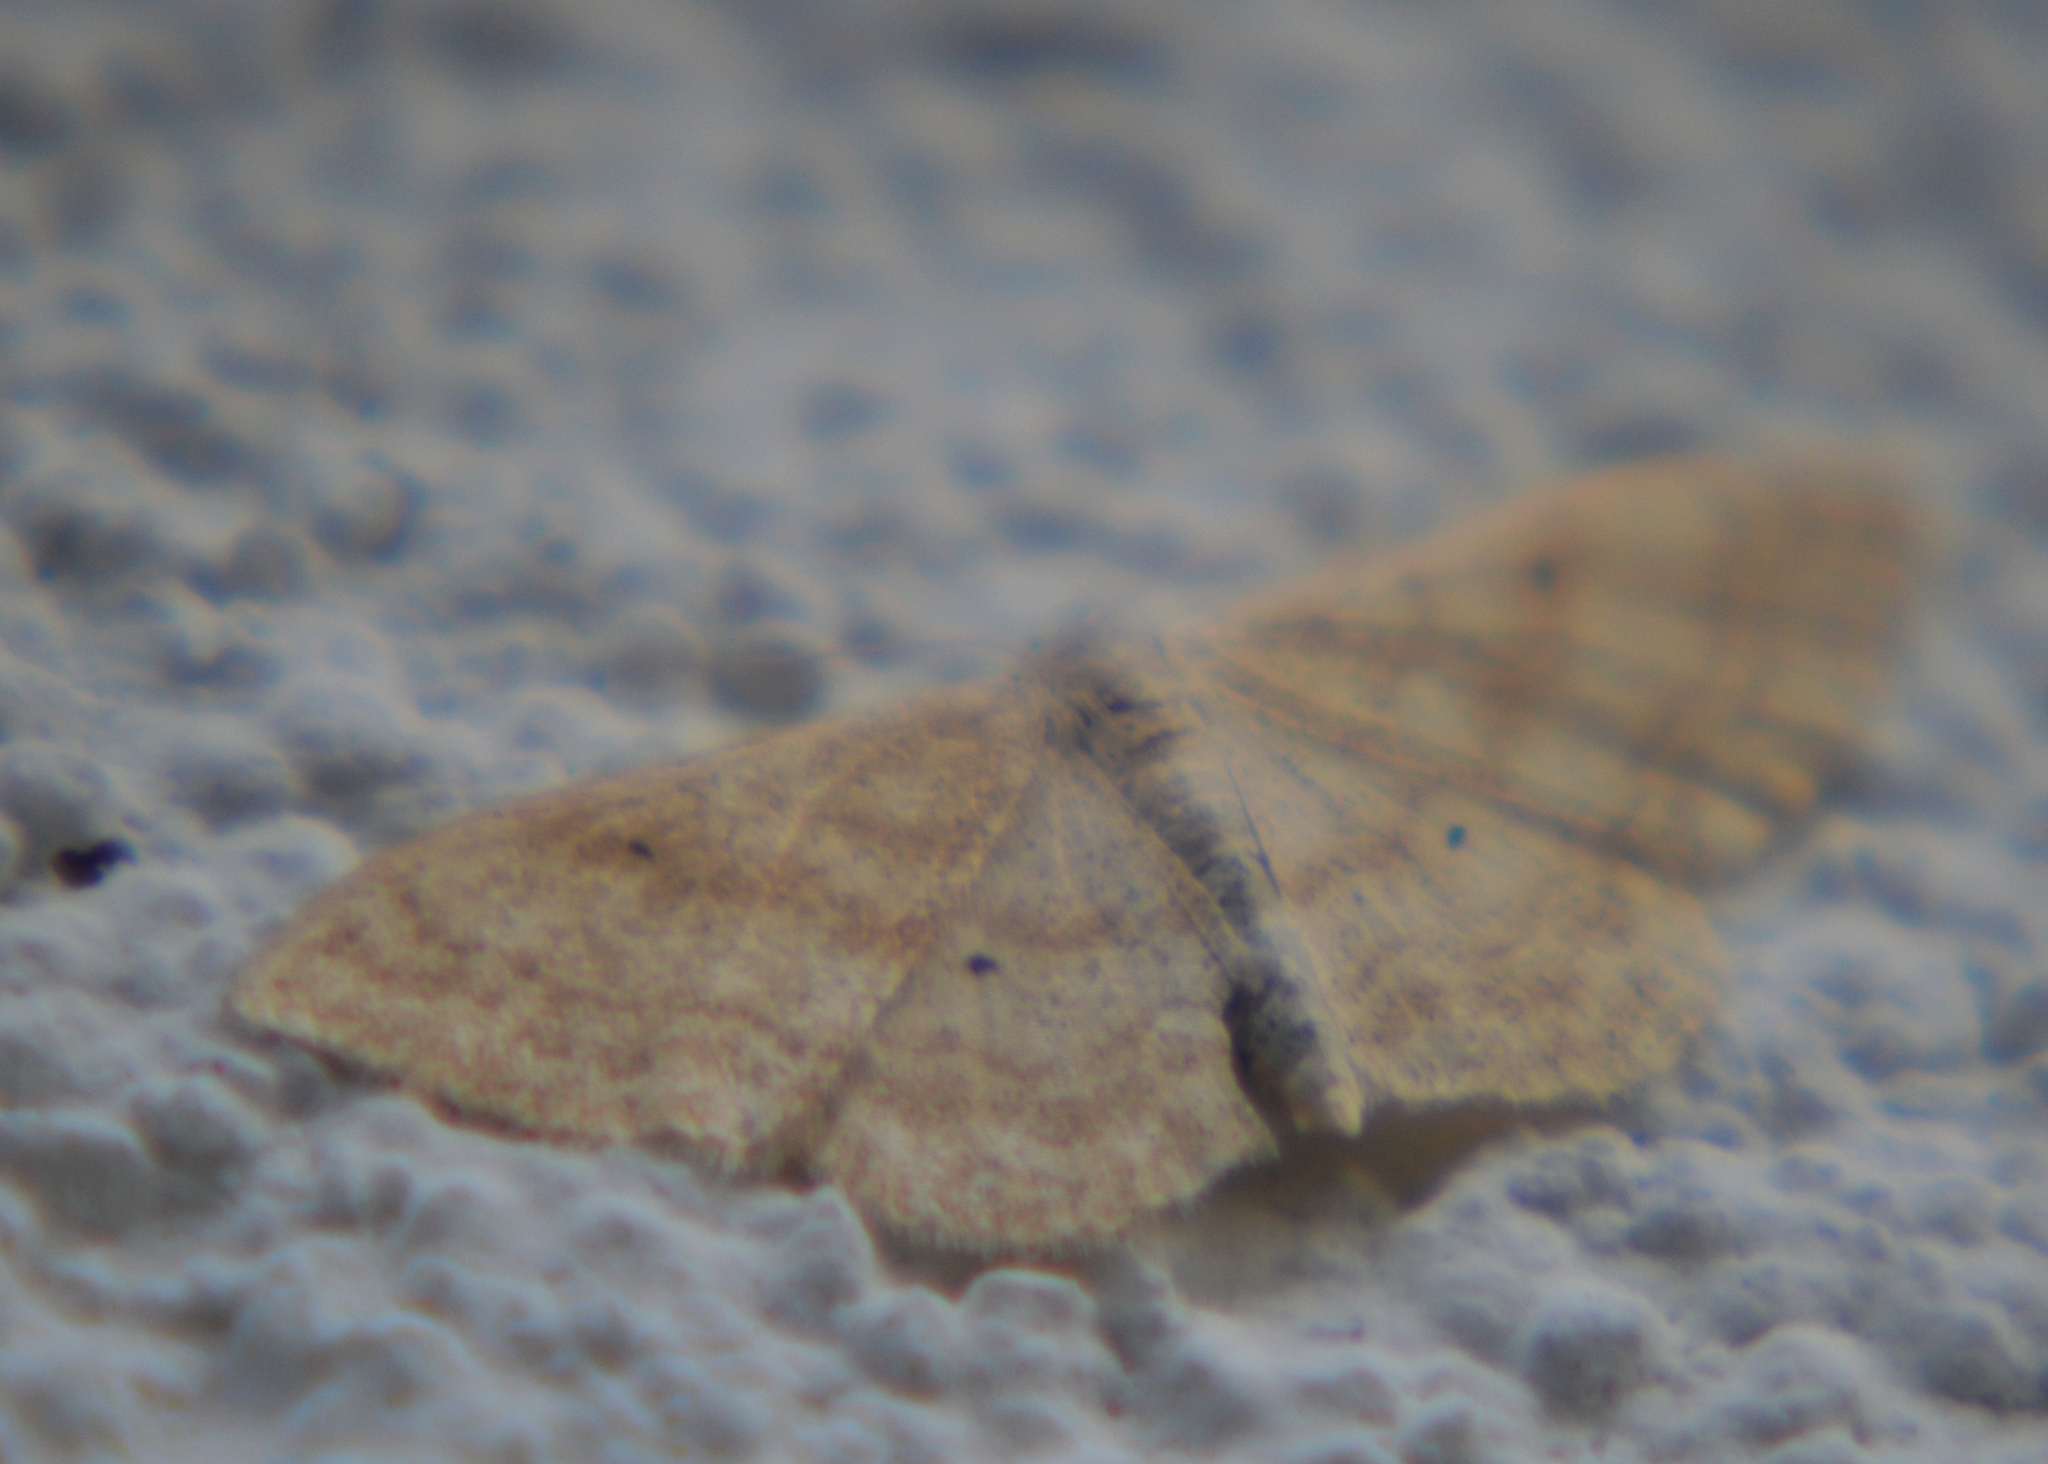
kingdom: Animalia
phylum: Arthropoda
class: Insecta
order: Lepidoptera
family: Geometridae
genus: Idaea
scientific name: Idaea serpentata
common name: Ochraceous wave
